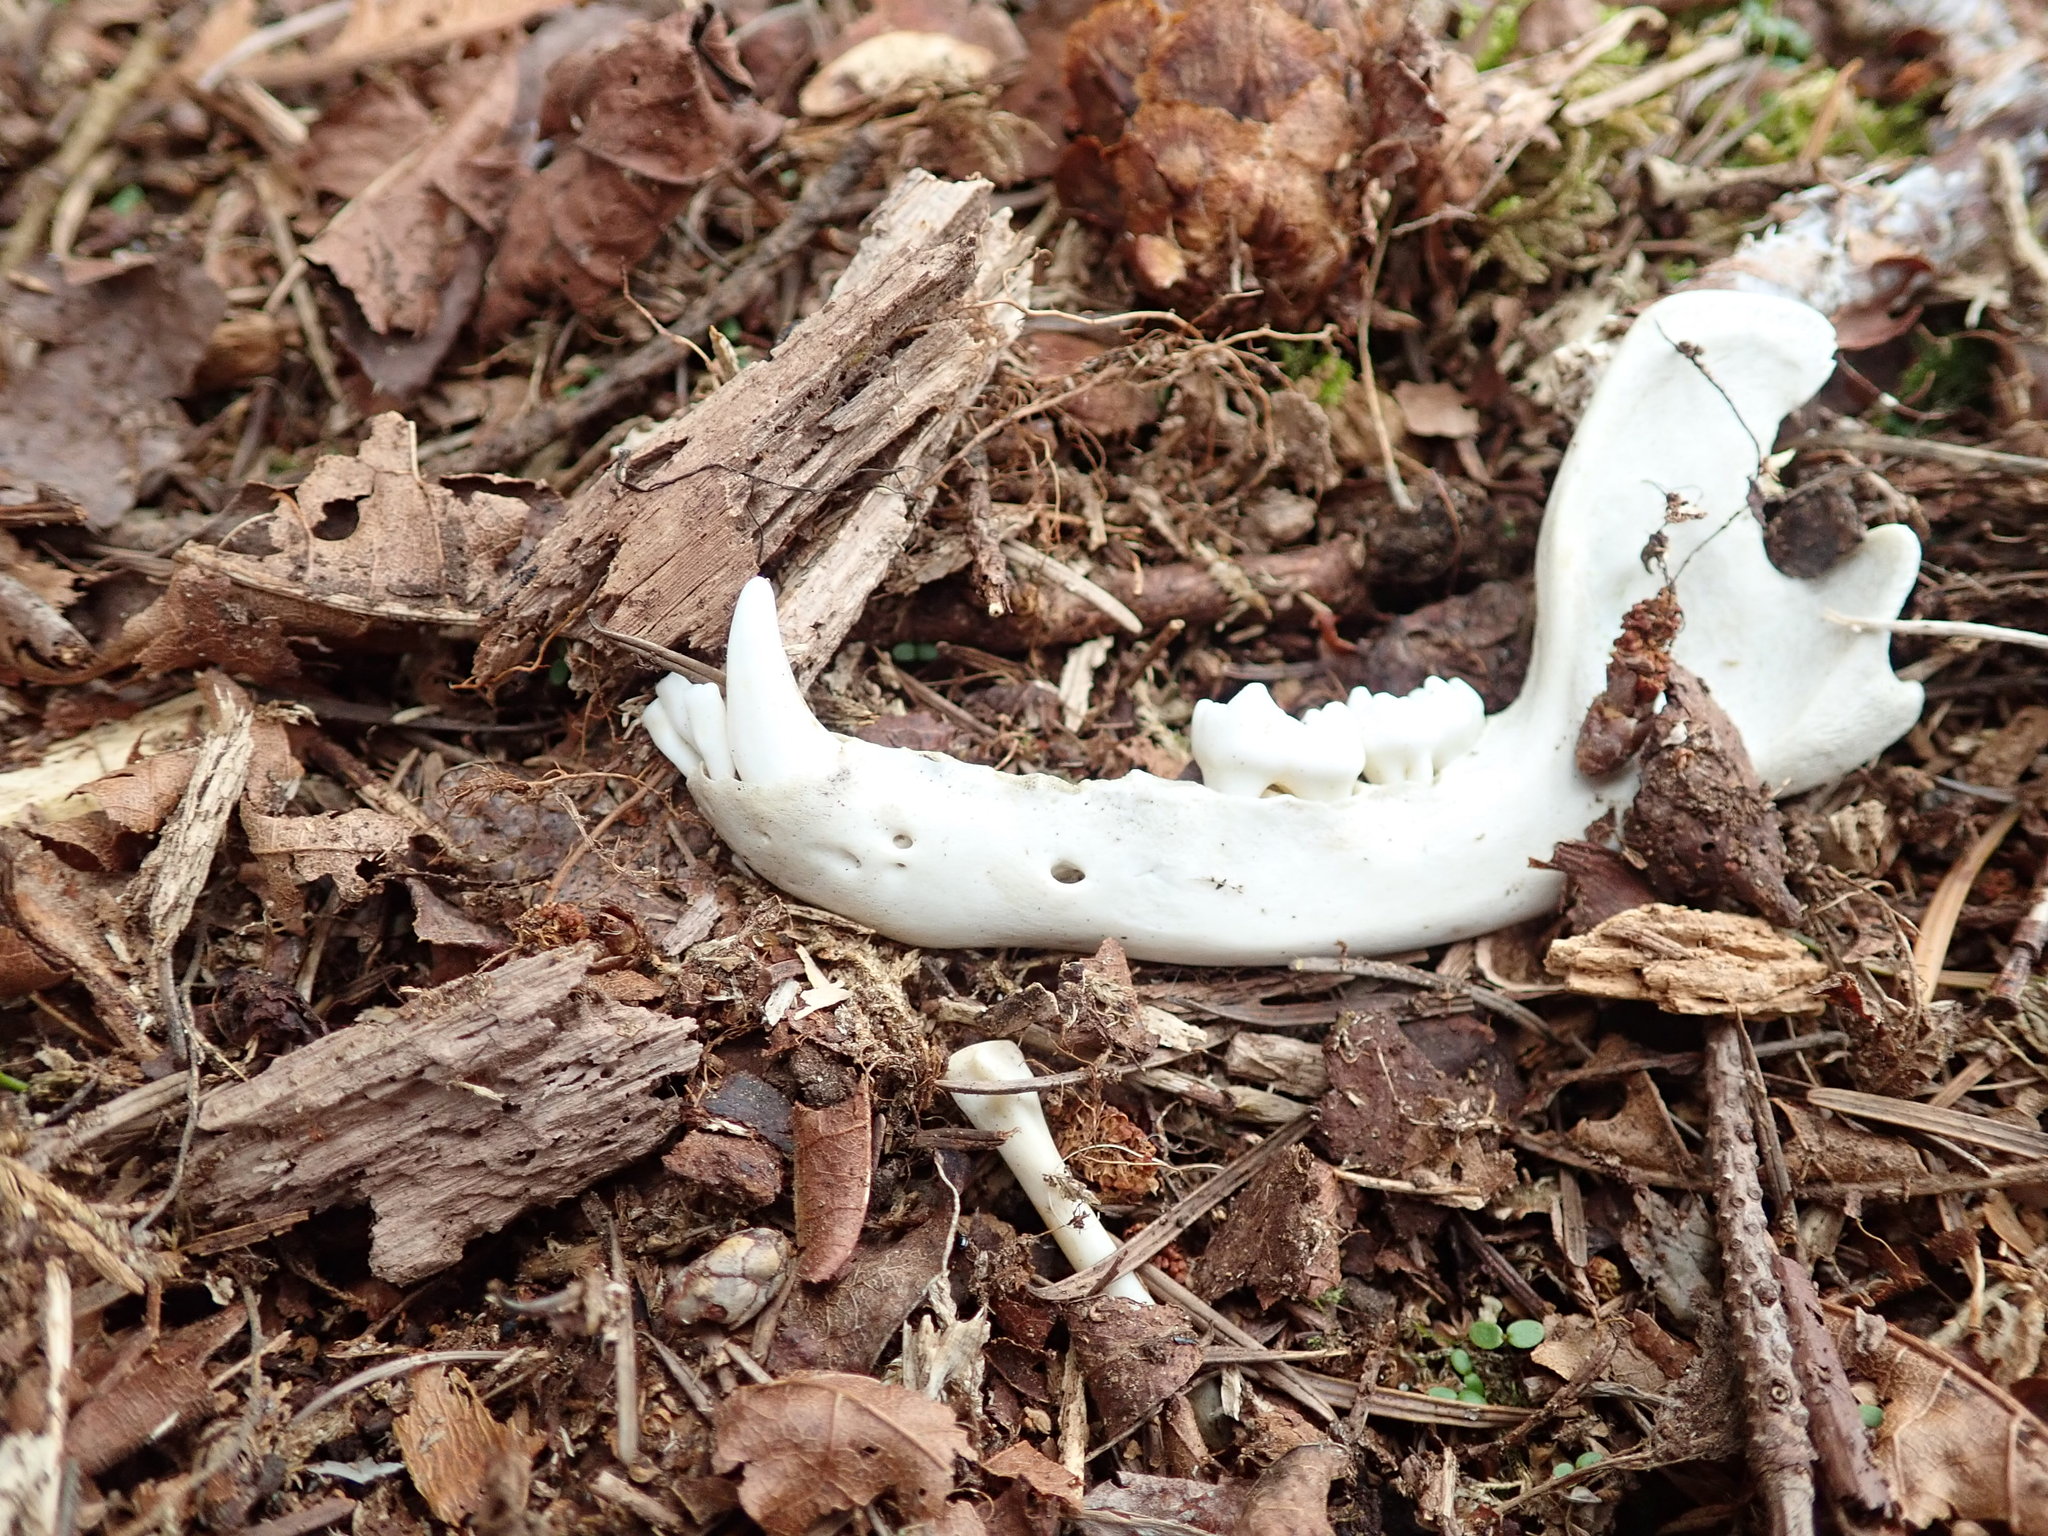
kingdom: Animalia
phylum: Chordata
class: Mammalia
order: Carnivora
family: Procyonidae
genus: Procyon
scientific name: Procyon lotor
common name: Raccoon
